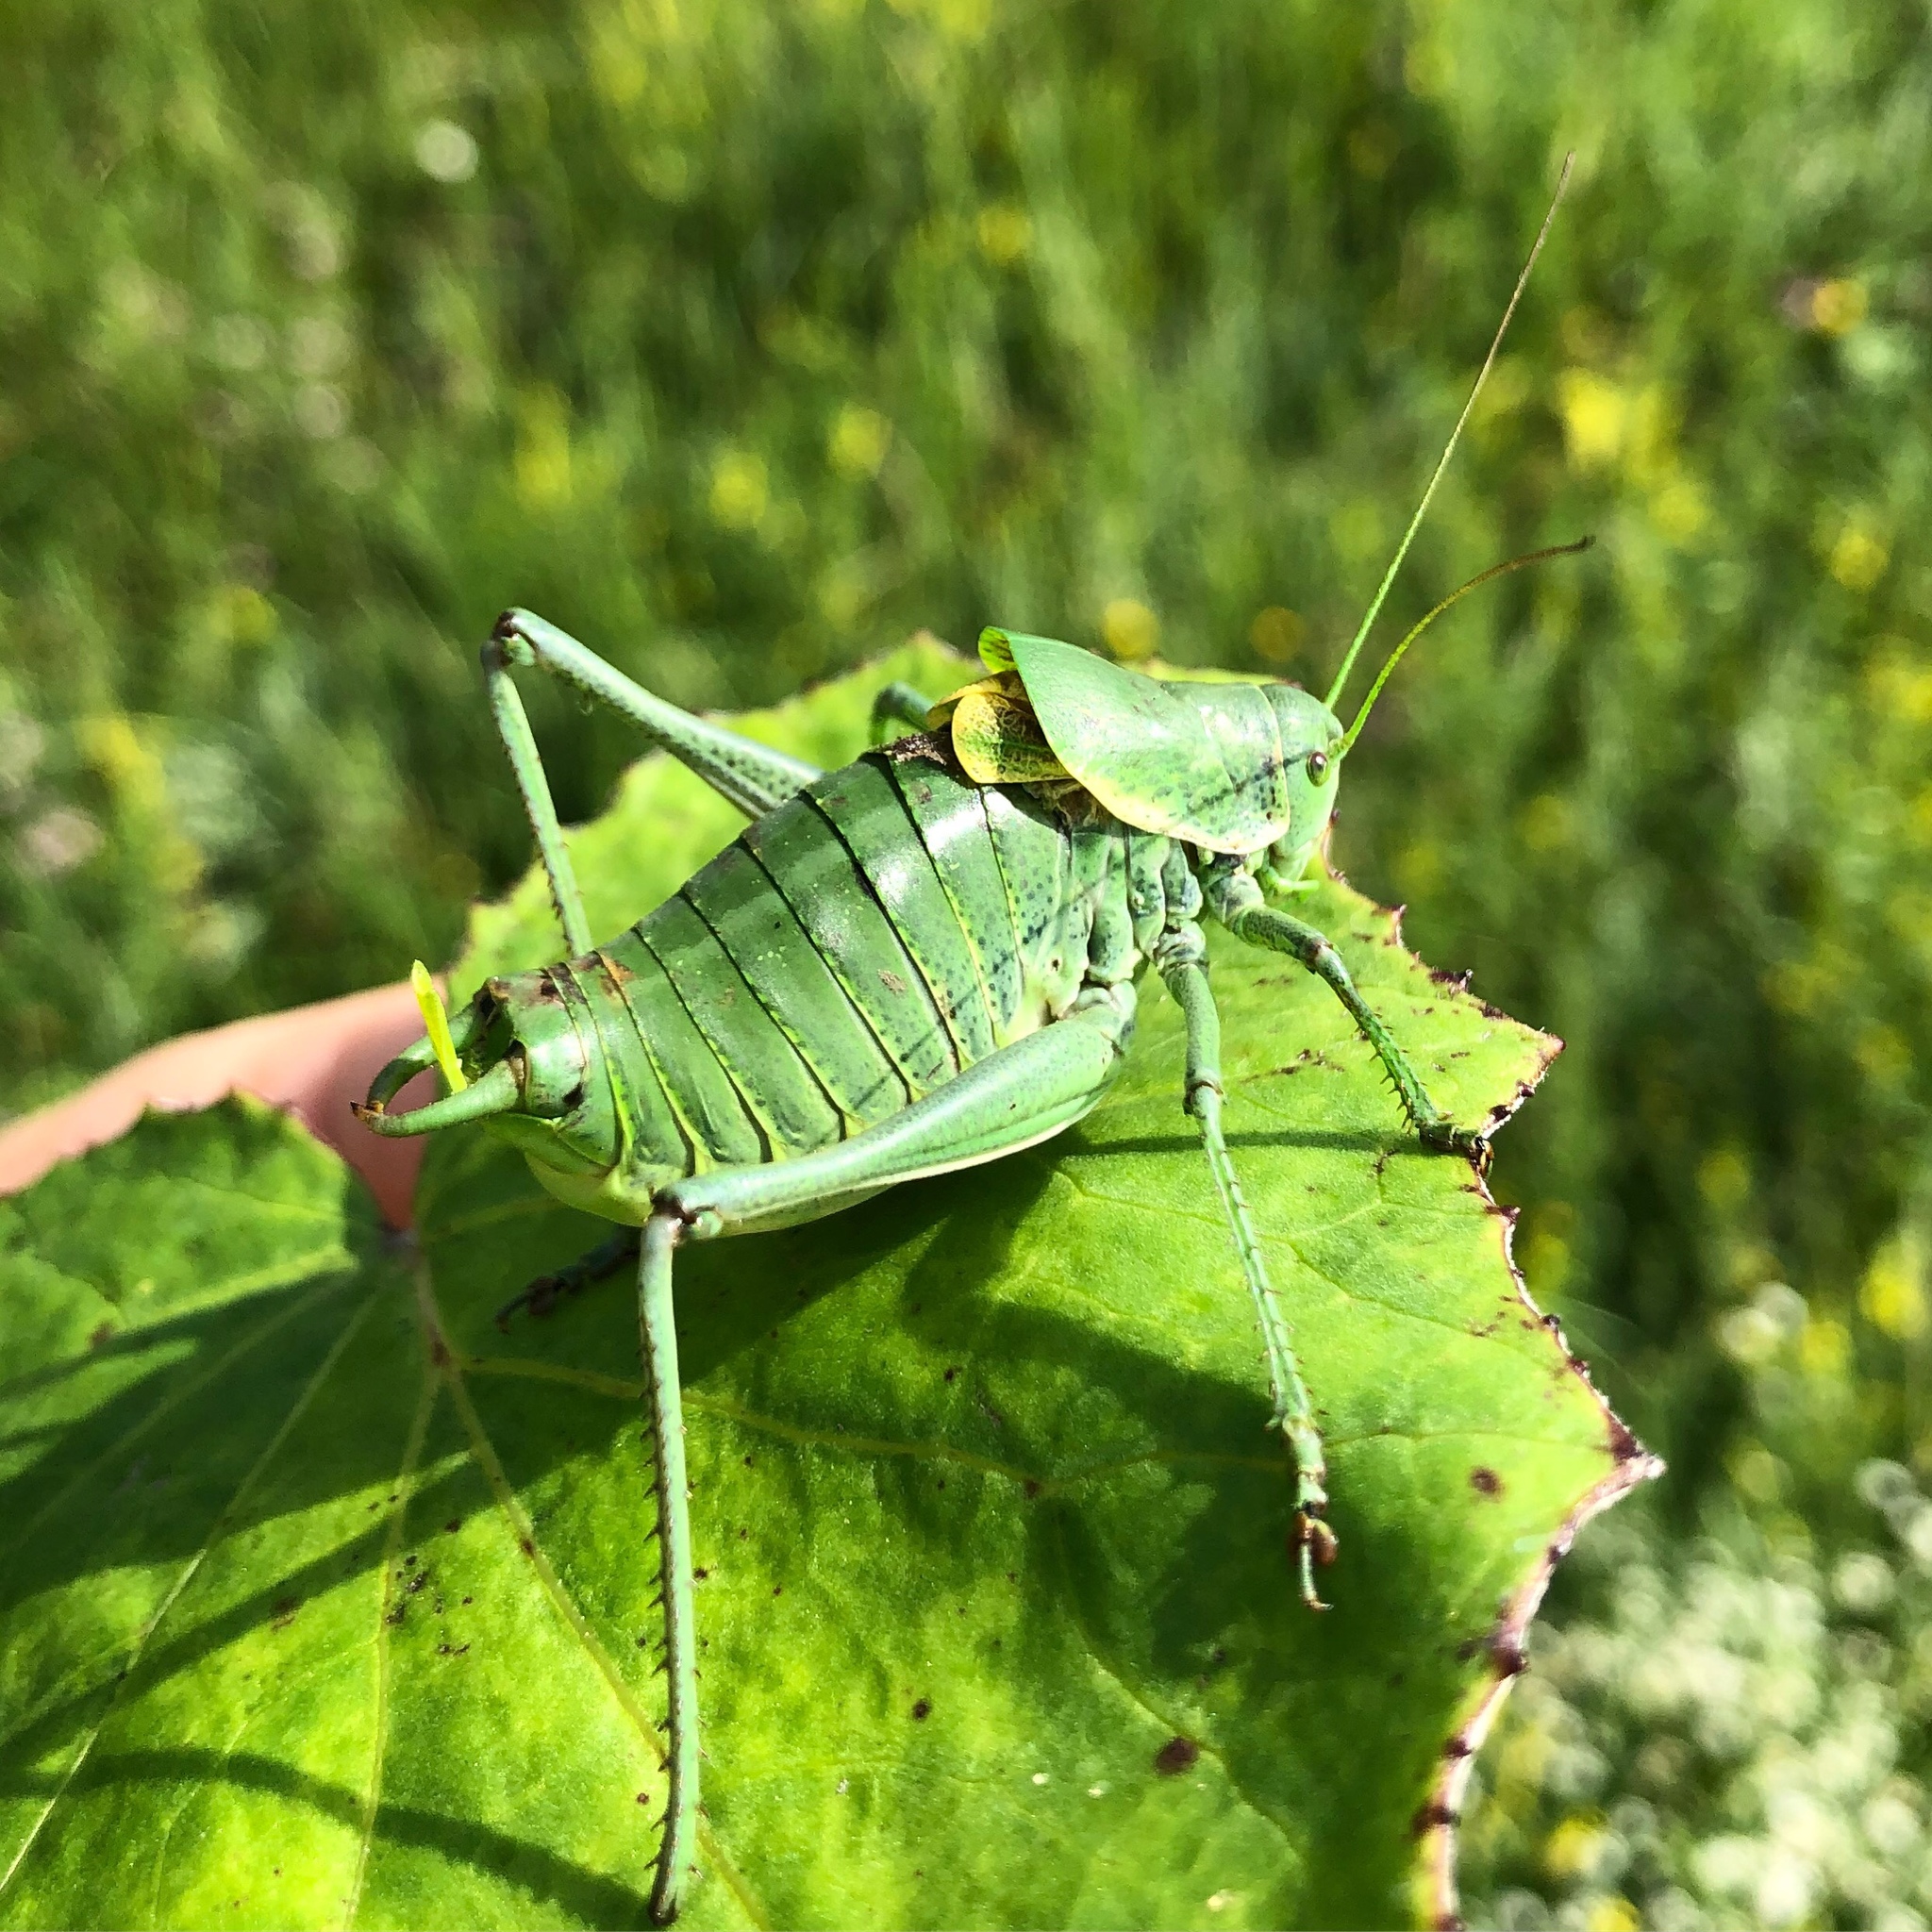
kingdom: Animalia
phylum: Arthropoda
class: Insecta
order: Orthoptera
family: Tettigoniidae
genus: Polysarcus
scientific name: Polysarcus denticauda
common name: Large saw-tailed bush-cricket
